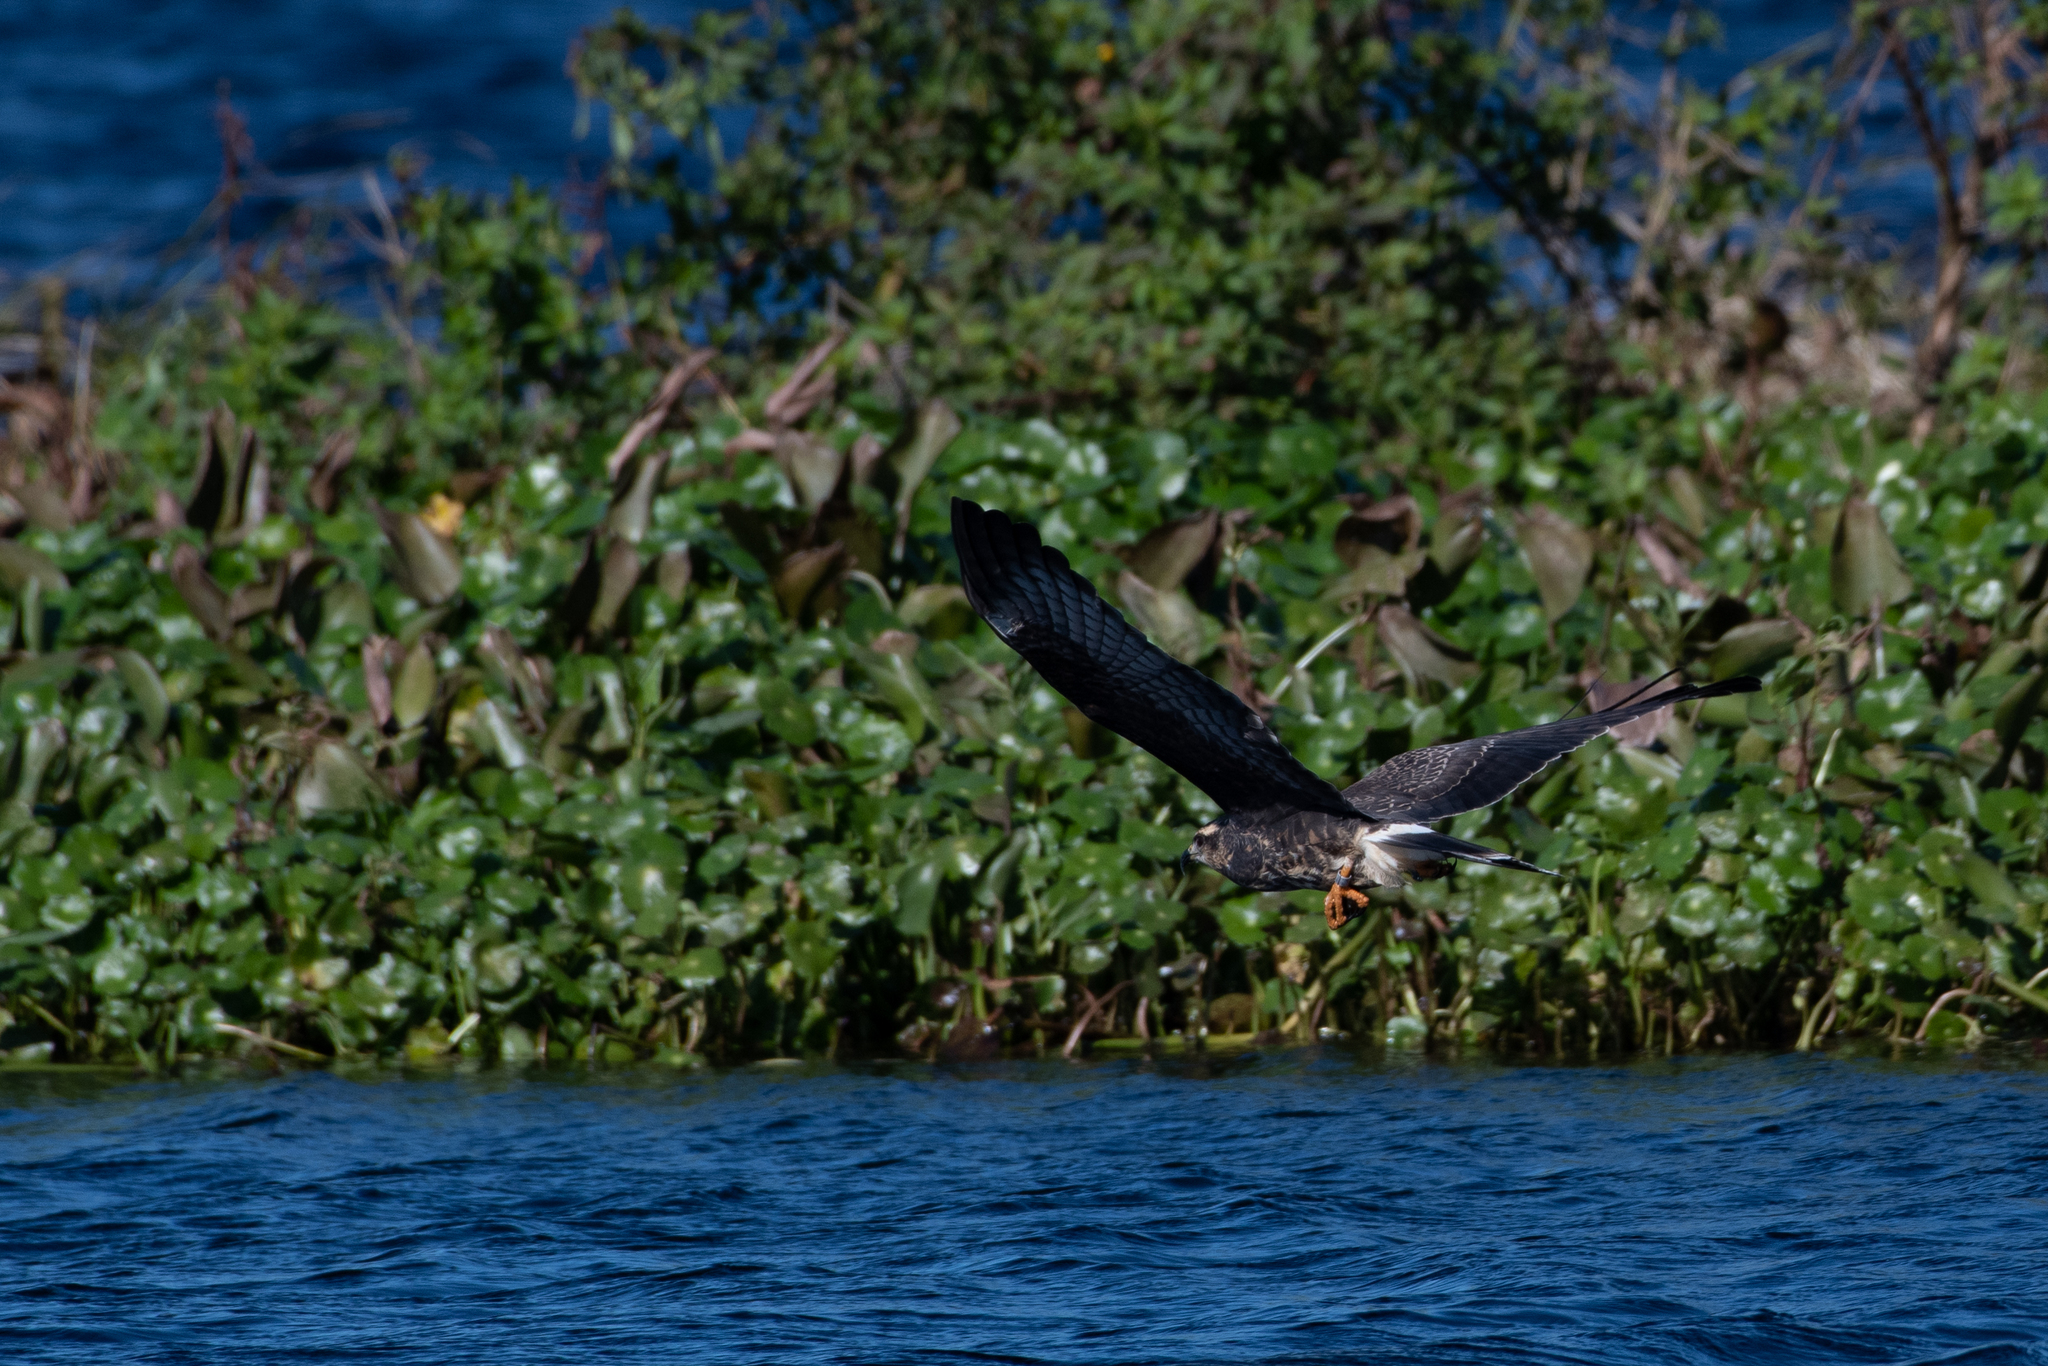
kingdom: Animalia
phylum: Chordata
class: Aves
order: Accipitriformes
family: Accipitridae
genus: Rostrhamus
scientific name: Rostrhamus sociabilis
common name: Snail kite
